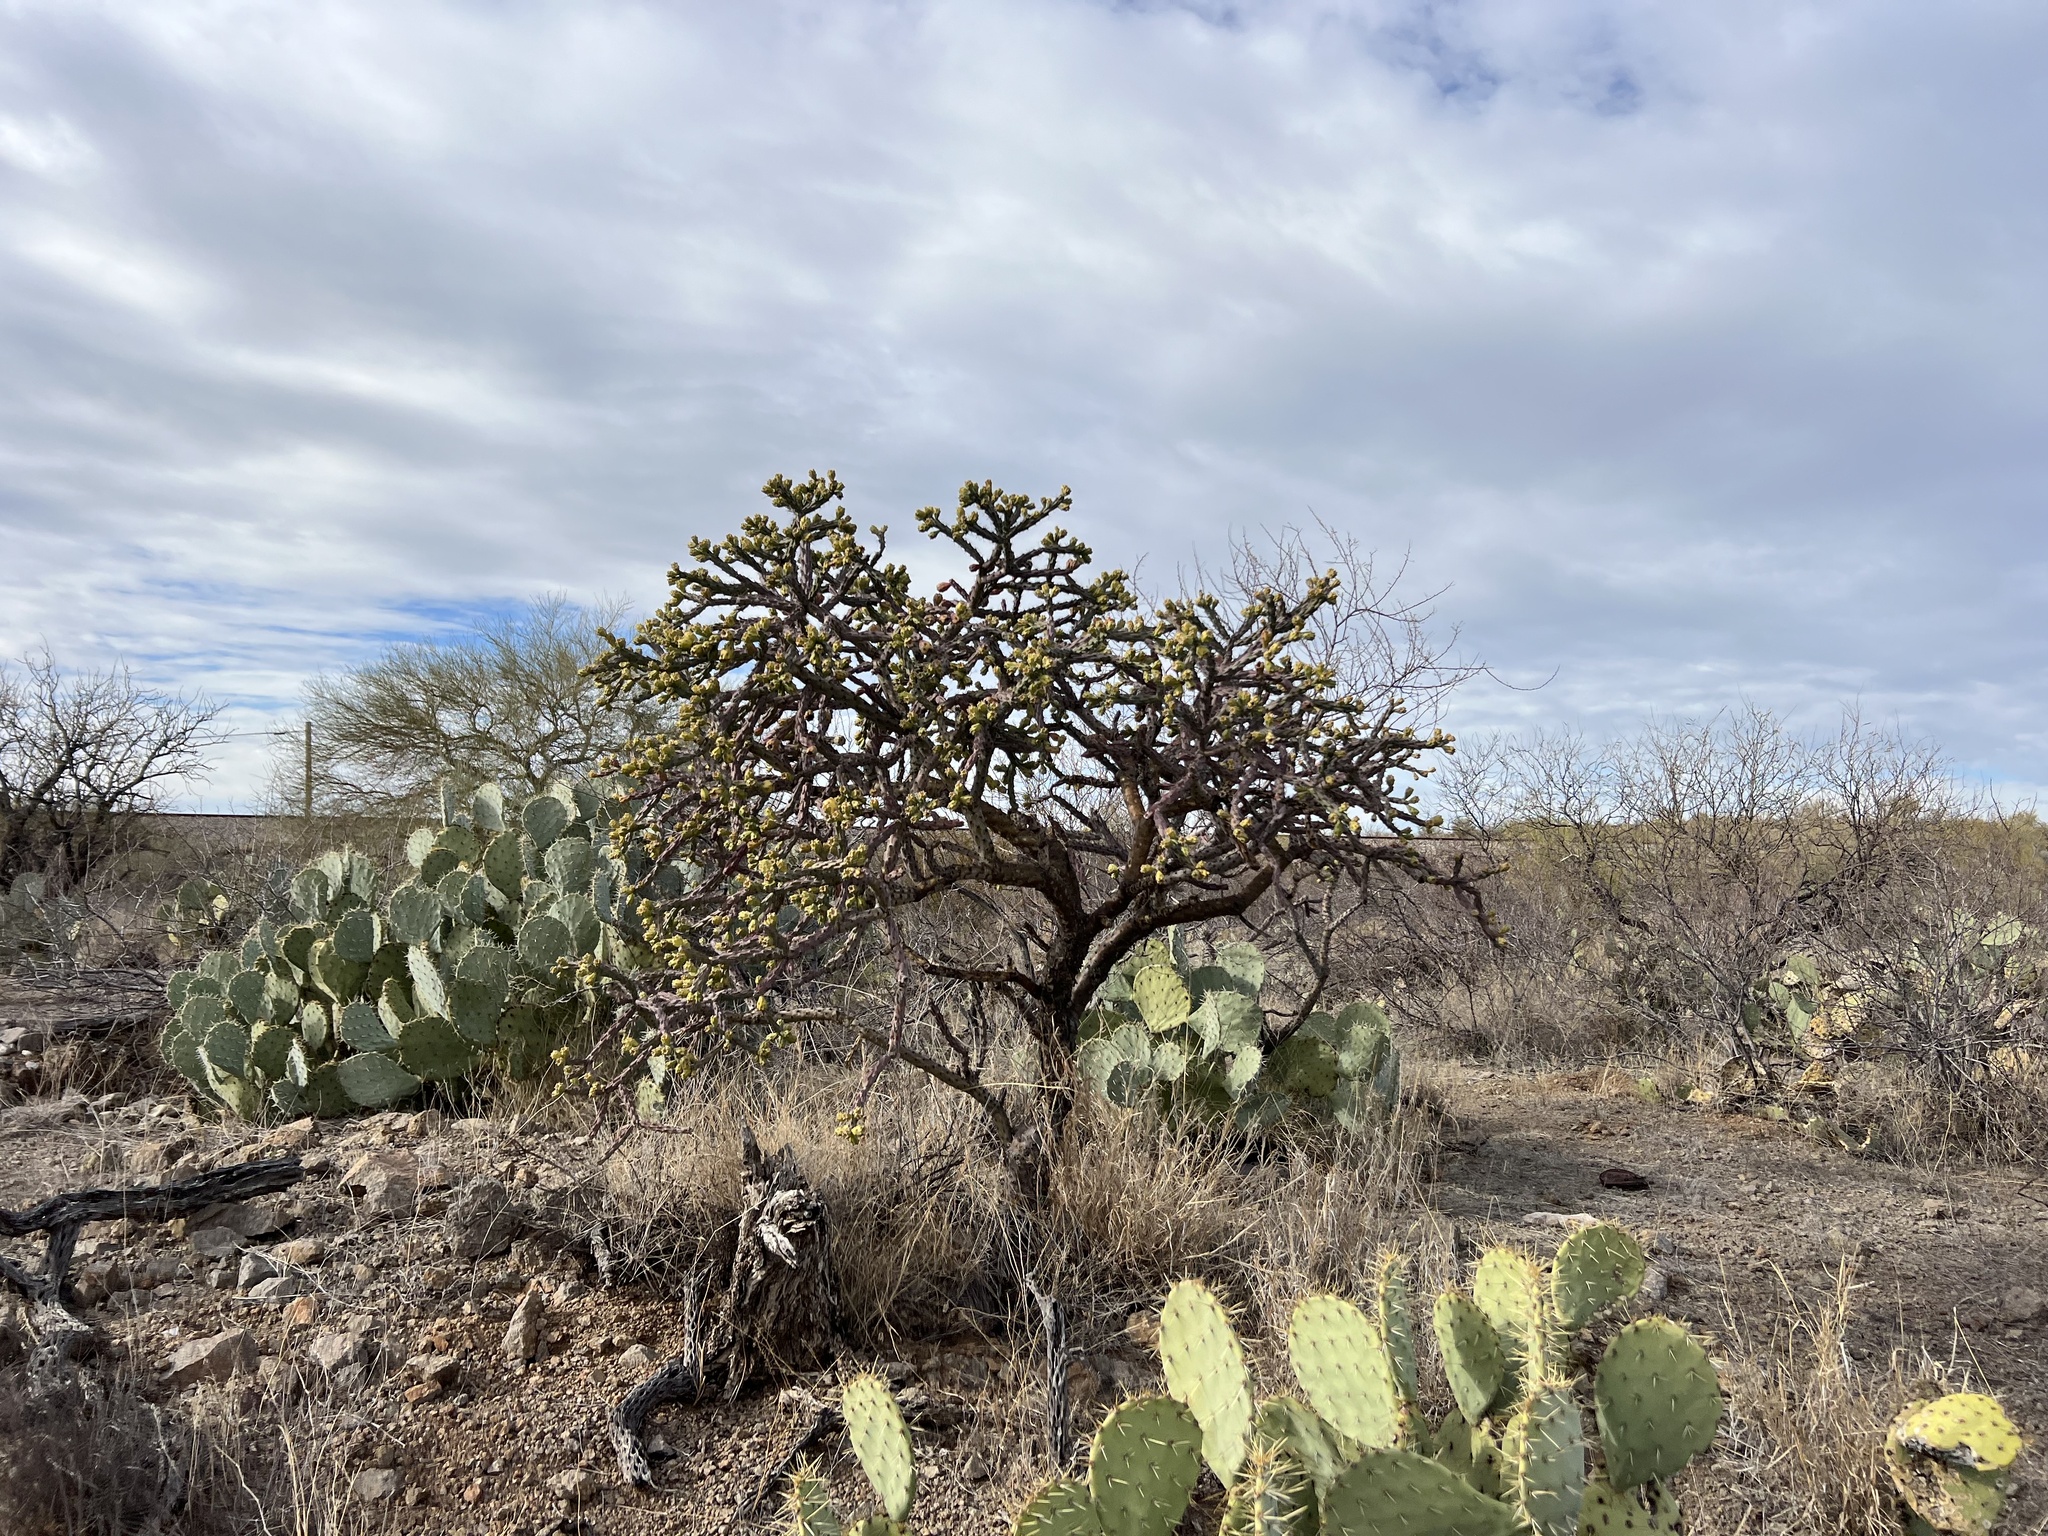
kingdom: Plantae
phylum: Tracheophyta
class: Magnoliopsida
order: Caryophyllales
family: Cactaceae
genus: Cylindropuntia
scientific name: Cylindropuntia thurberi
